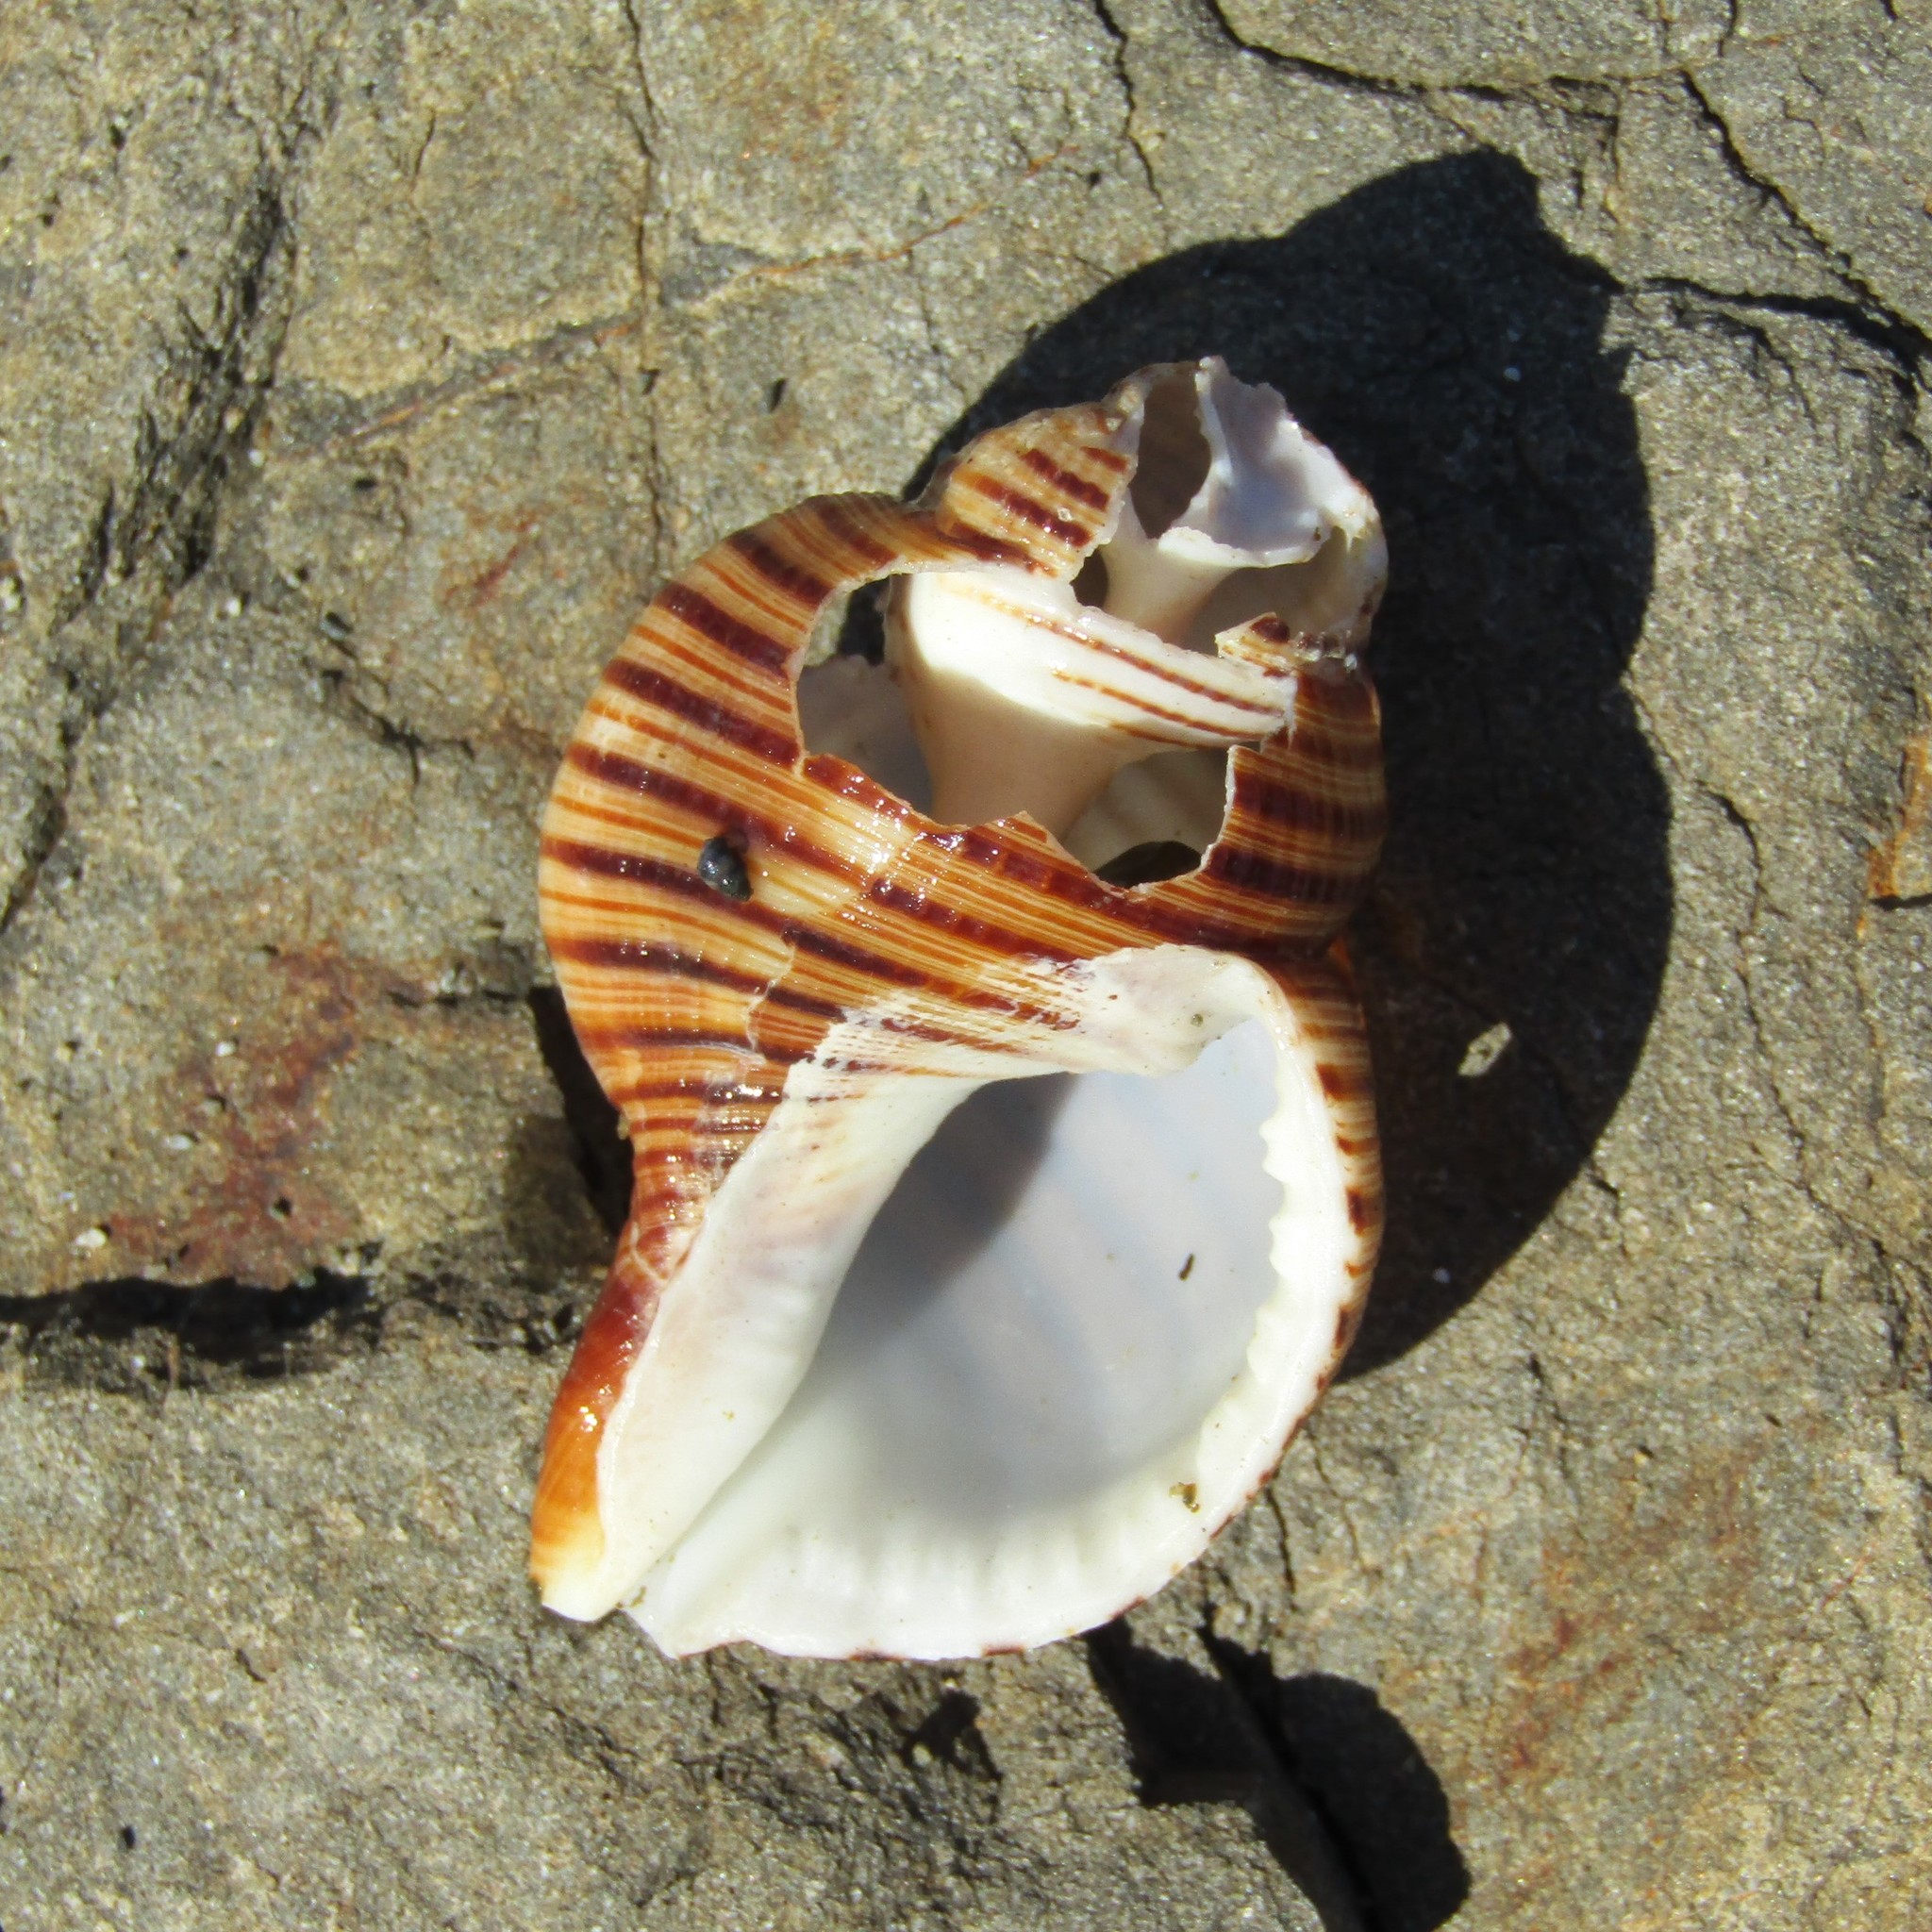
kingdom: Animalia
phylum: Mollusca
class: Gastropoda
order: Littorinimorpha
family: Cymatiidae
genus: Argobuccinum
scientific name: Argobuccinum pustulosum
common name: Pustular triton
